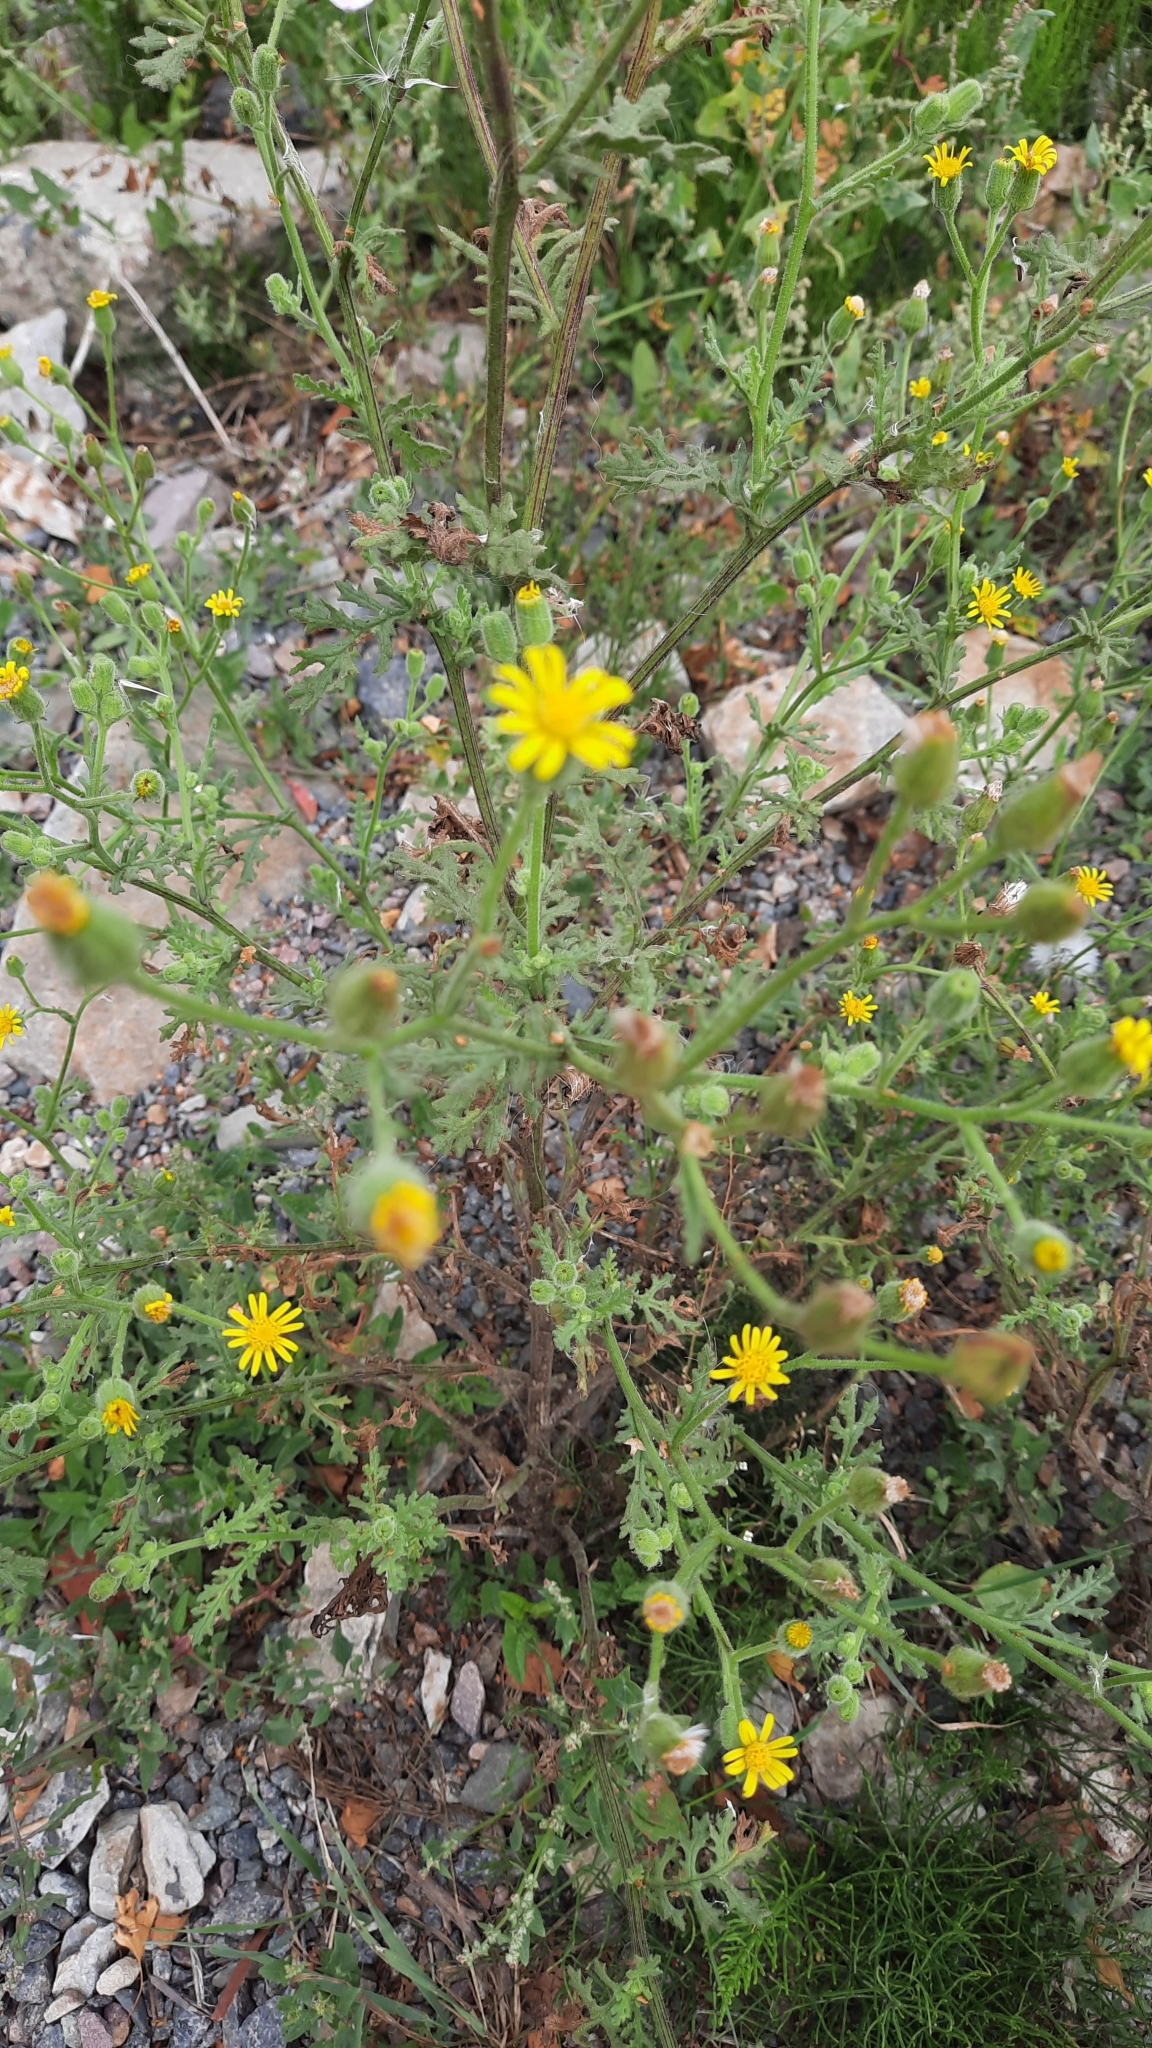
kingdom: Plantae
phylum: Tracheophyta
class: Magnoliopsida
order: Asterales
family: Asteraceae
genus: Senecio
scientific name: Senecio viscosus
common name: Sticky groundsel
